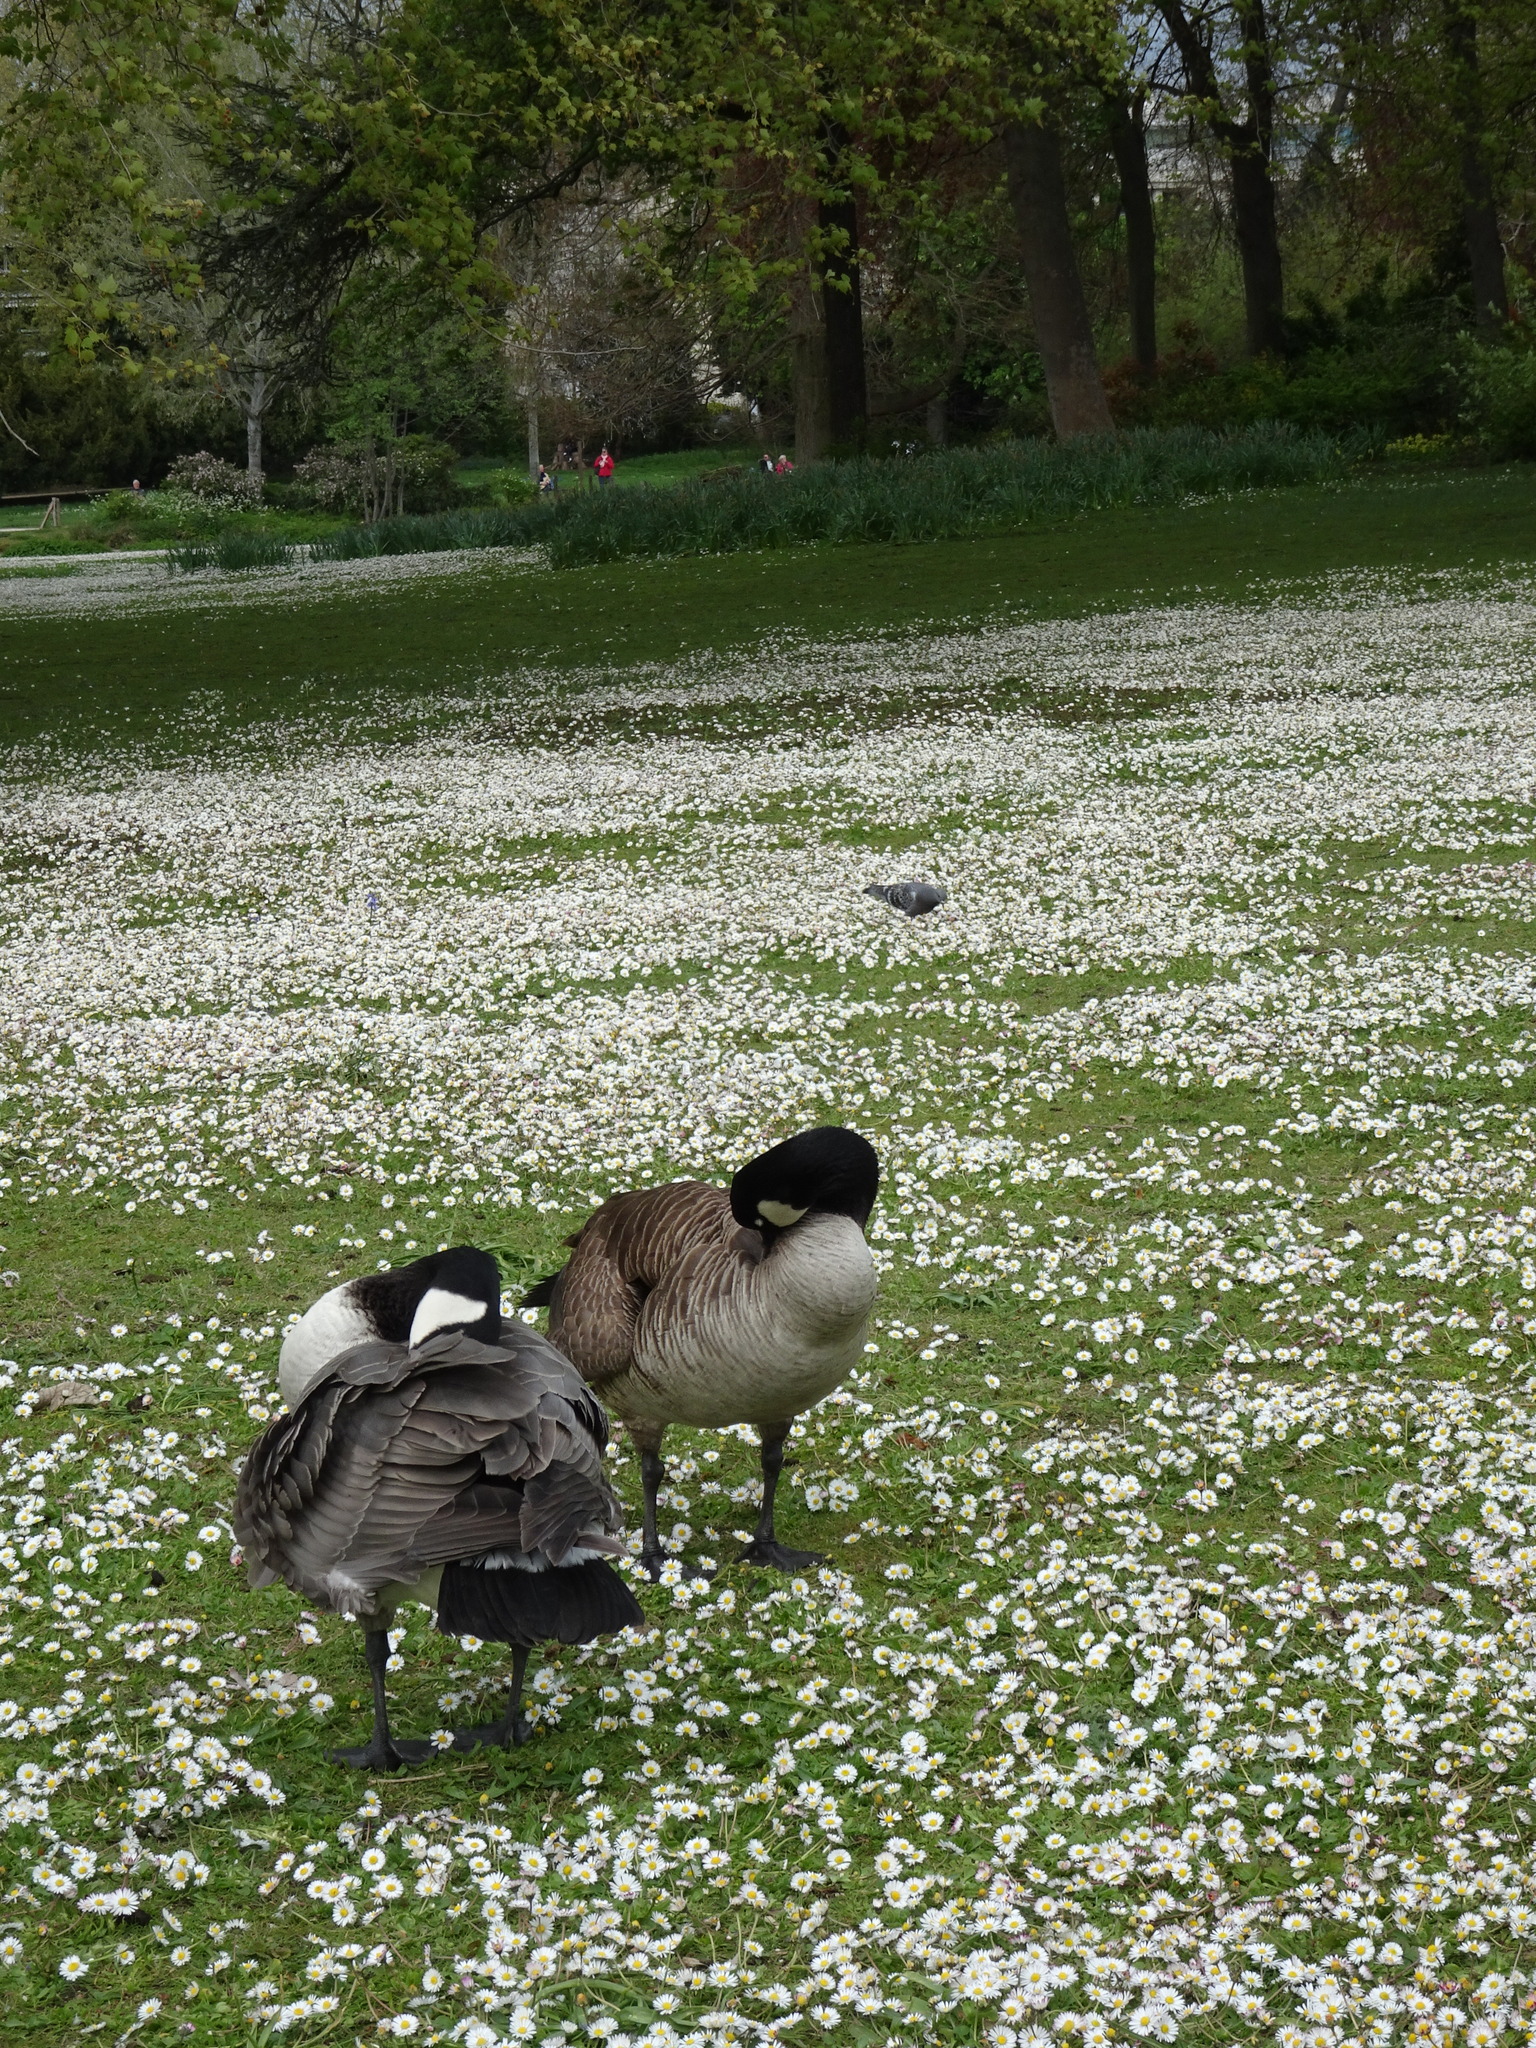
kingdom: Animalia
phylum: Chordata
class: Aves
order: Anseriformes
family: Anatidae
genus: Branta
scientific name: Branta canadensis
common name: Canada goose
